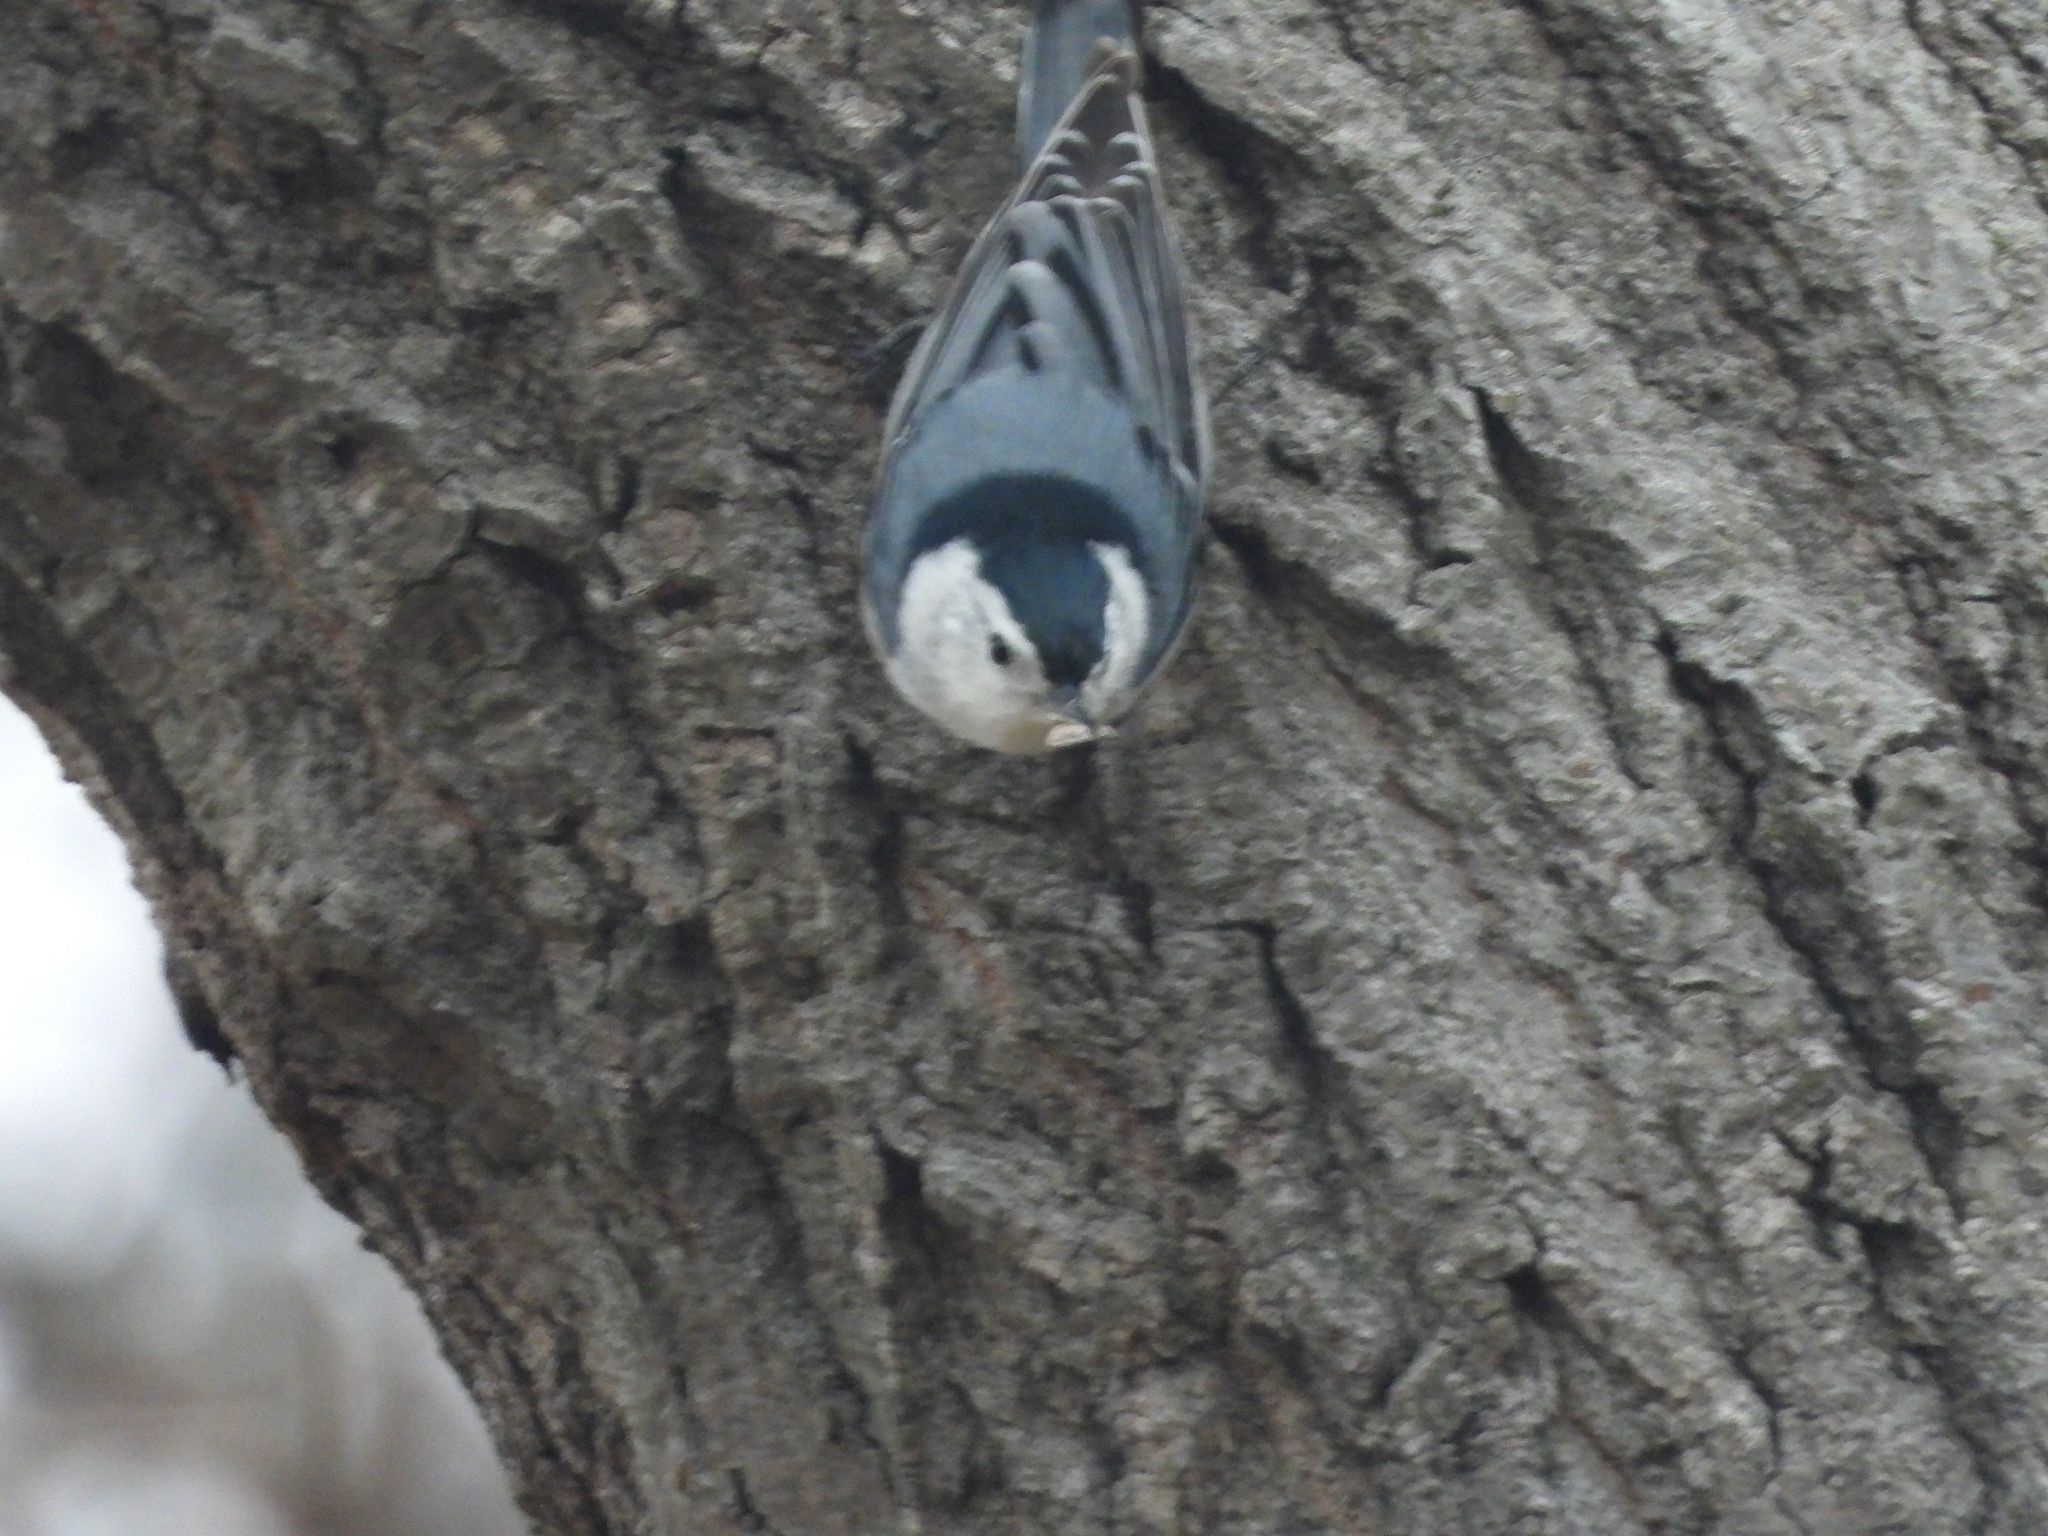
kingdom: Animalia
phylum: Chordata
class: Aves
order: Passeriformes
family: Sittidae
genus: Sitta
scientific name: Sitta carolinensis
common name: White-breasted nuthatch
